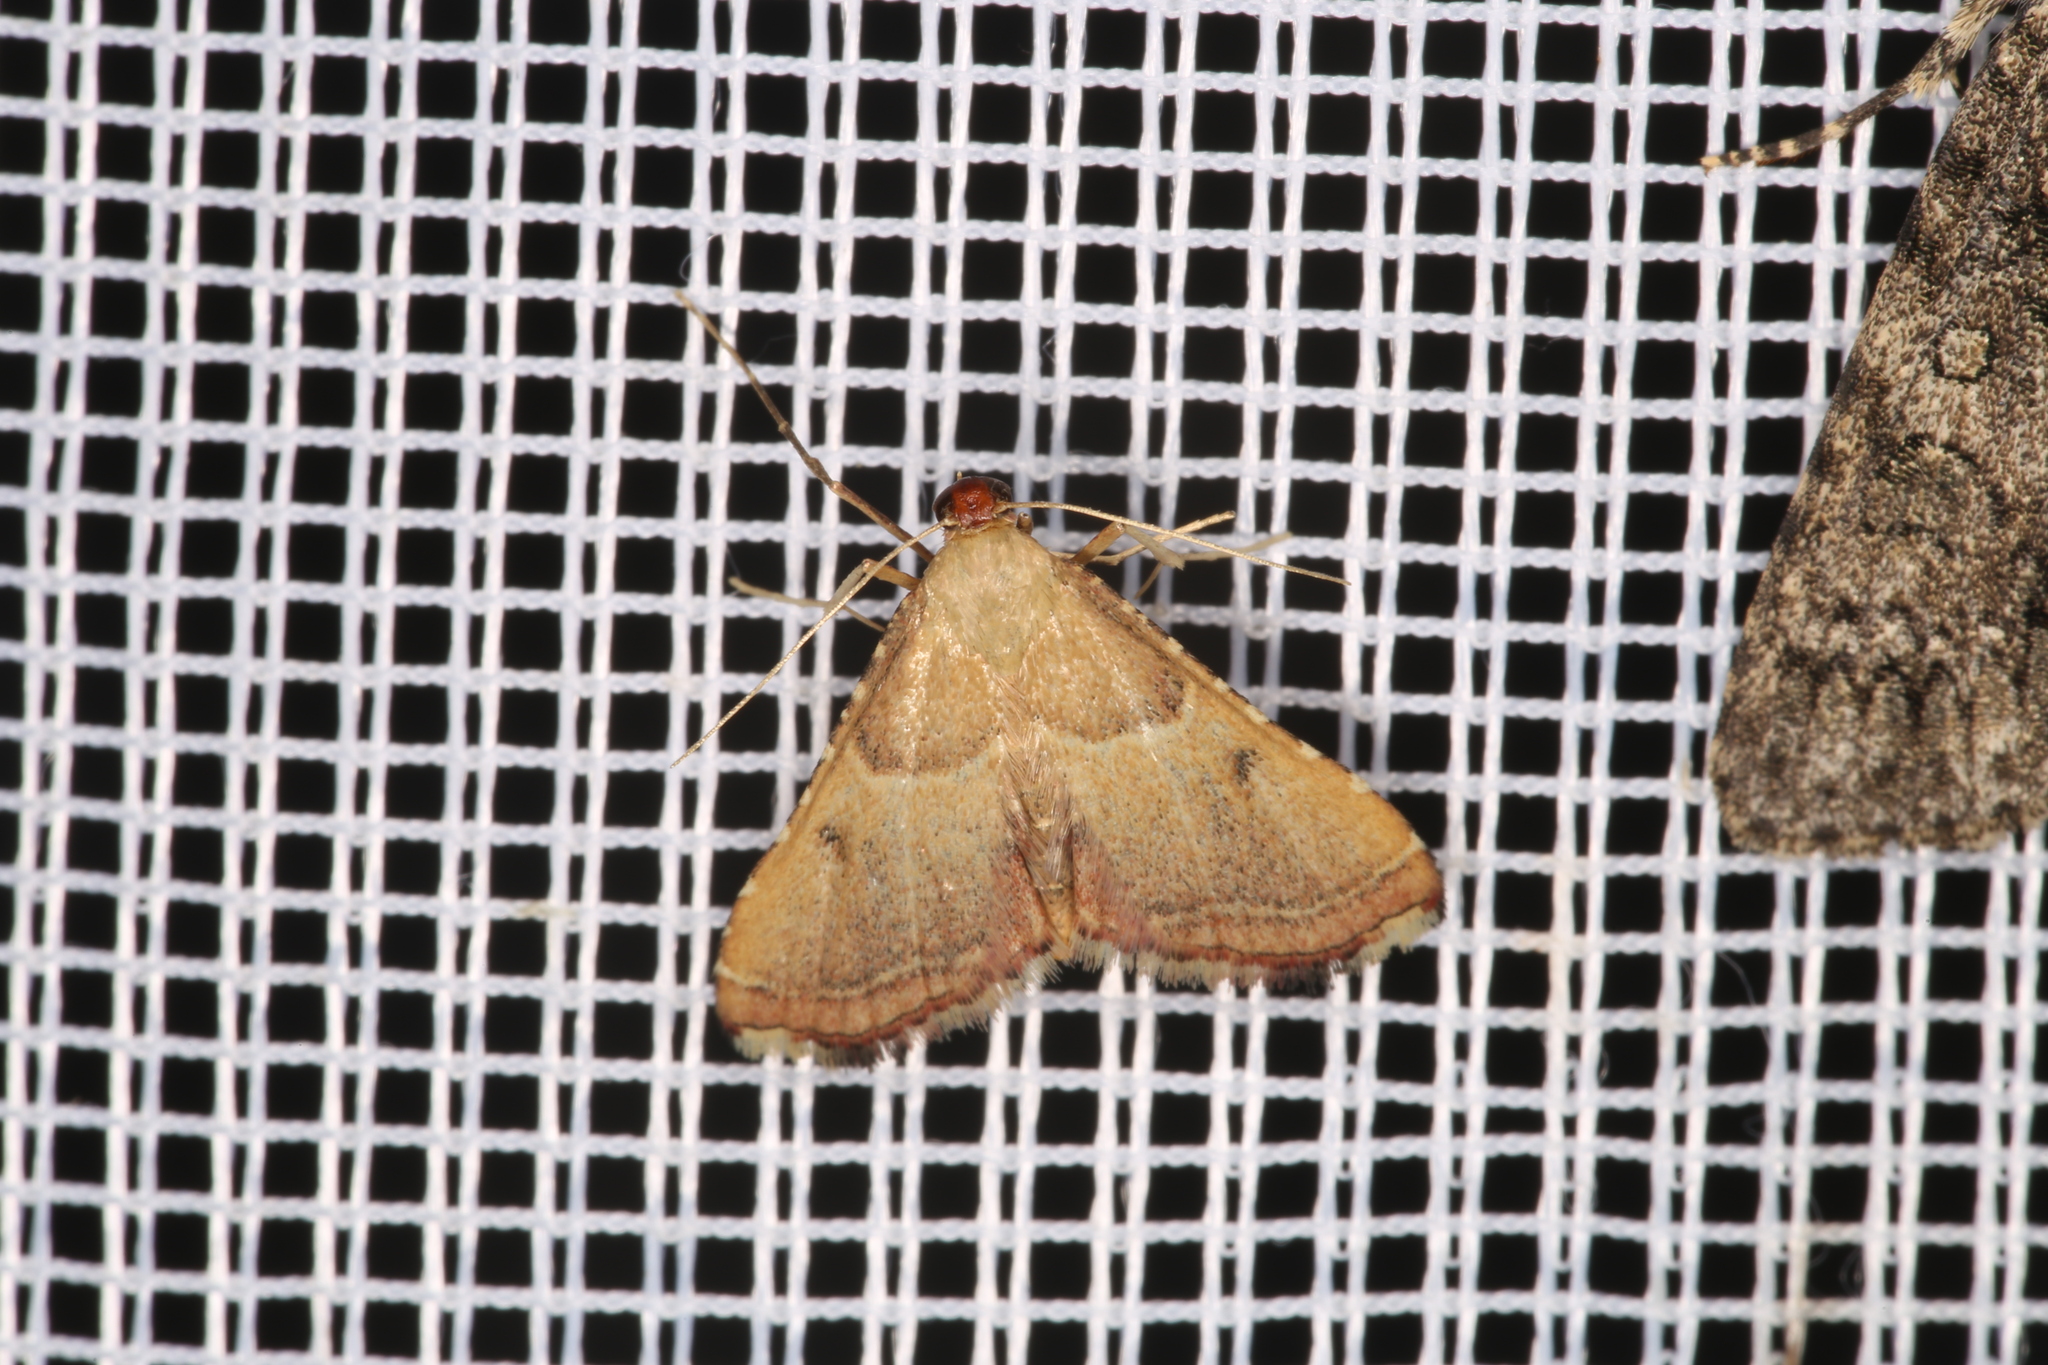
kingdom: Animalia
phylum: Arthropoda
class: Insecta
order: Lepidoptera
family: Pyralidae
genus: Endotricha
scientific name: Endotricha flammealis
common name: Rosy tabby
